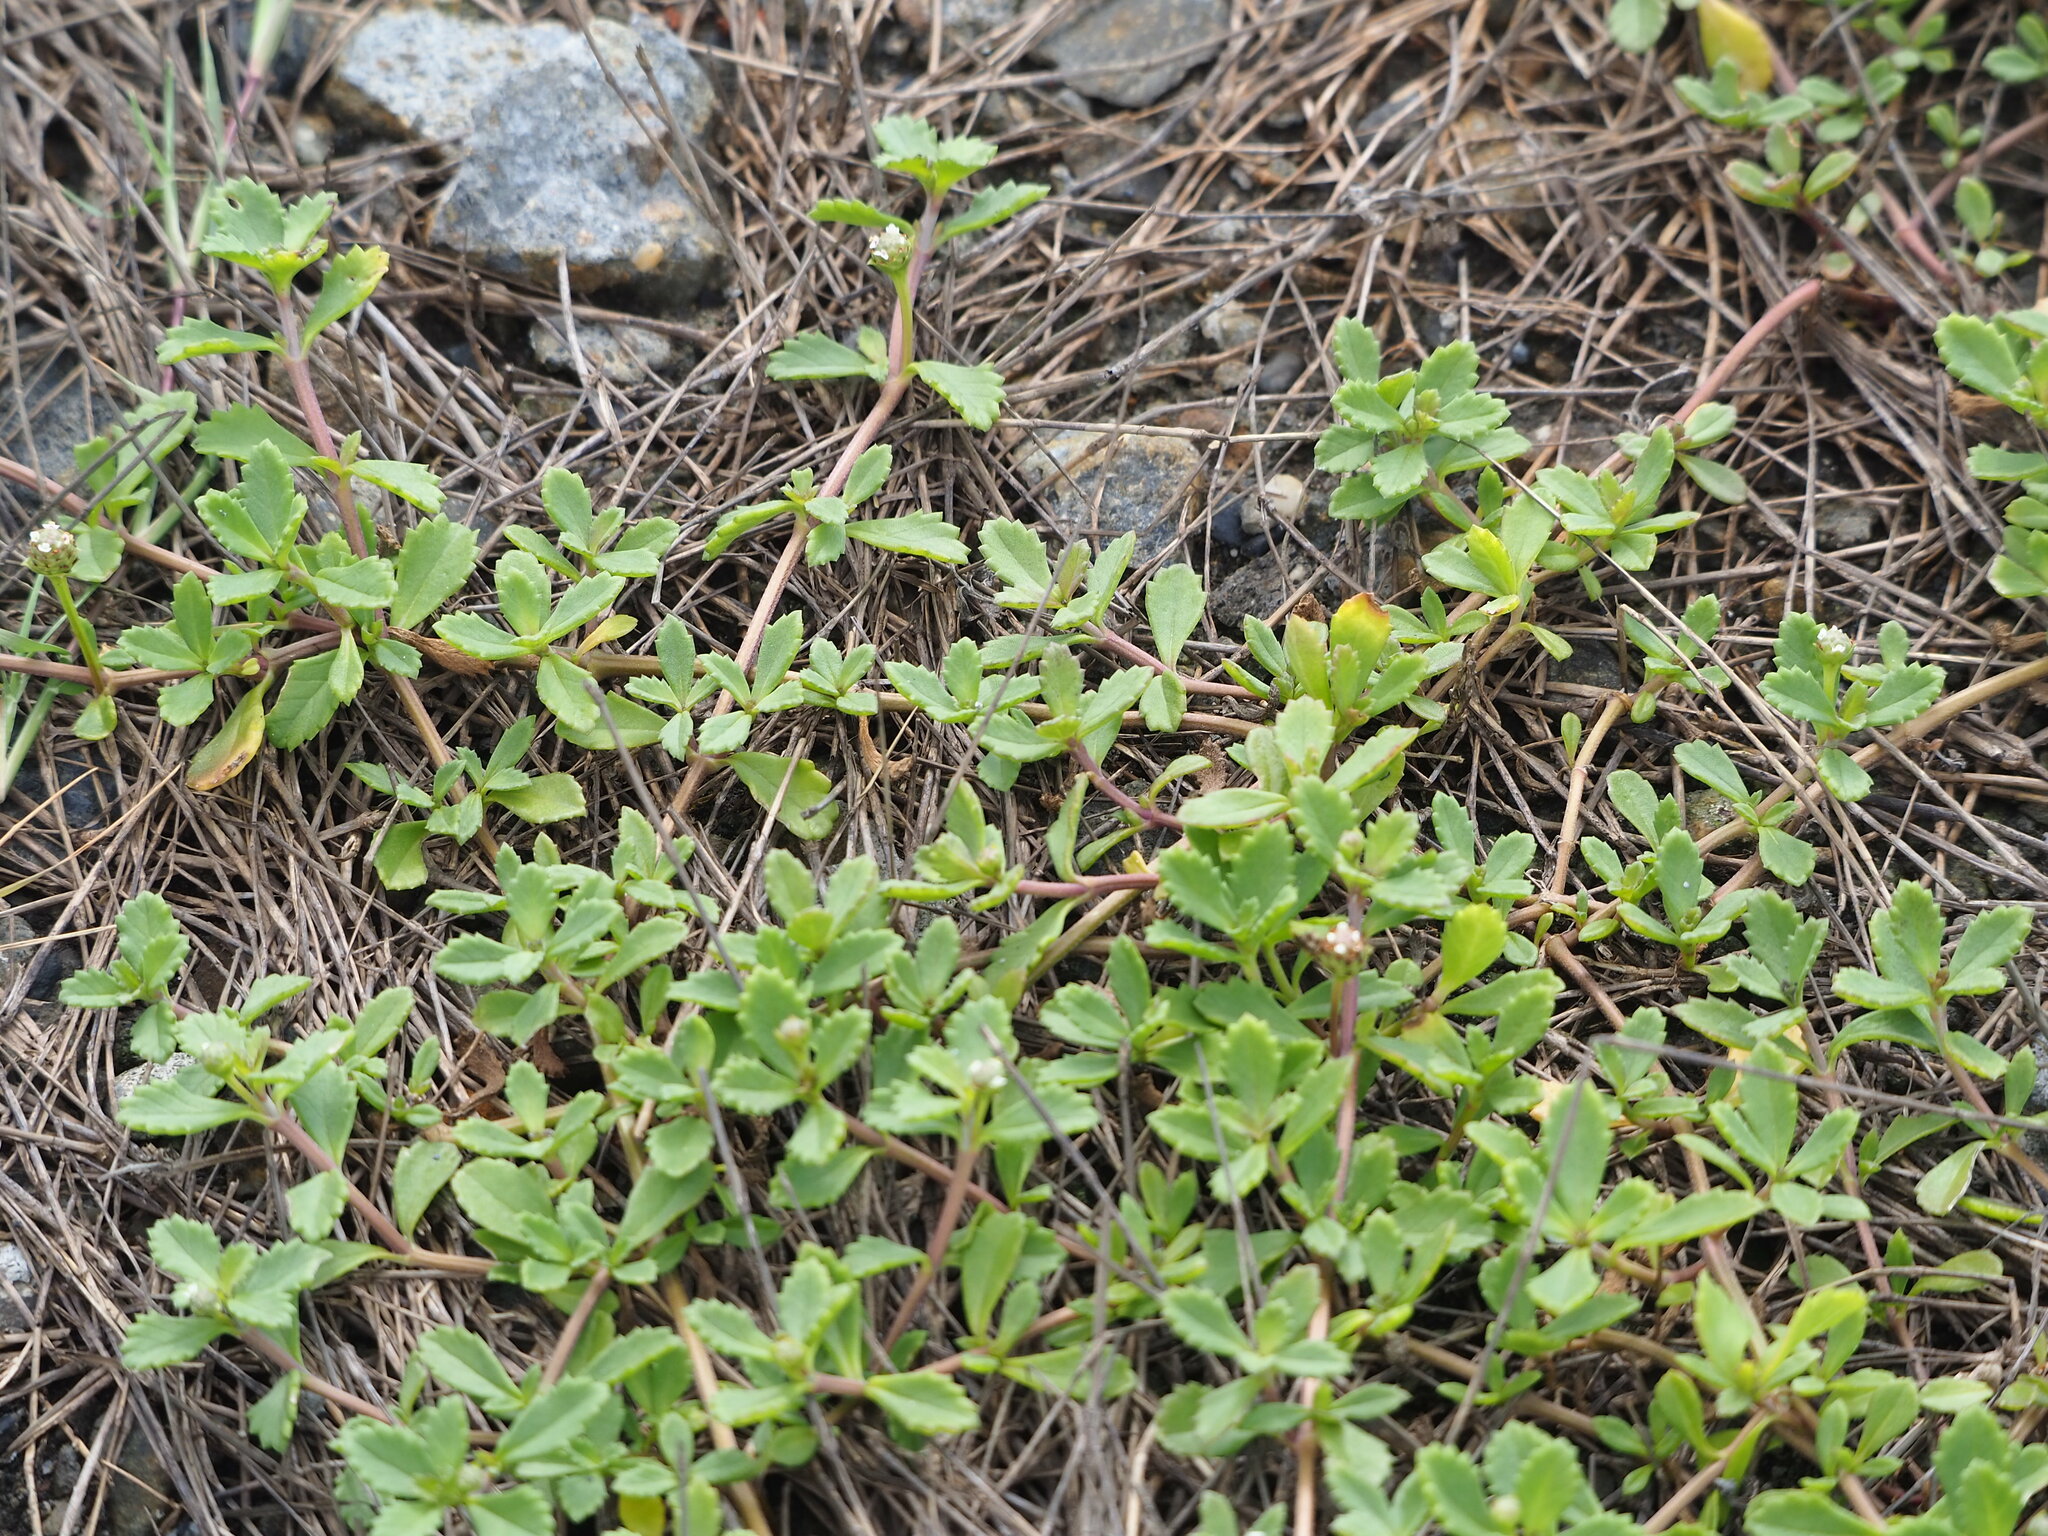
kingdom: Plantae
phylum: Tracheophyta
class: Magnoliopsida
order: Lamiales
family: Verbenaceae
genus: Phyla
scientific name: Phyla nodiflora
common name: Frogfruit
